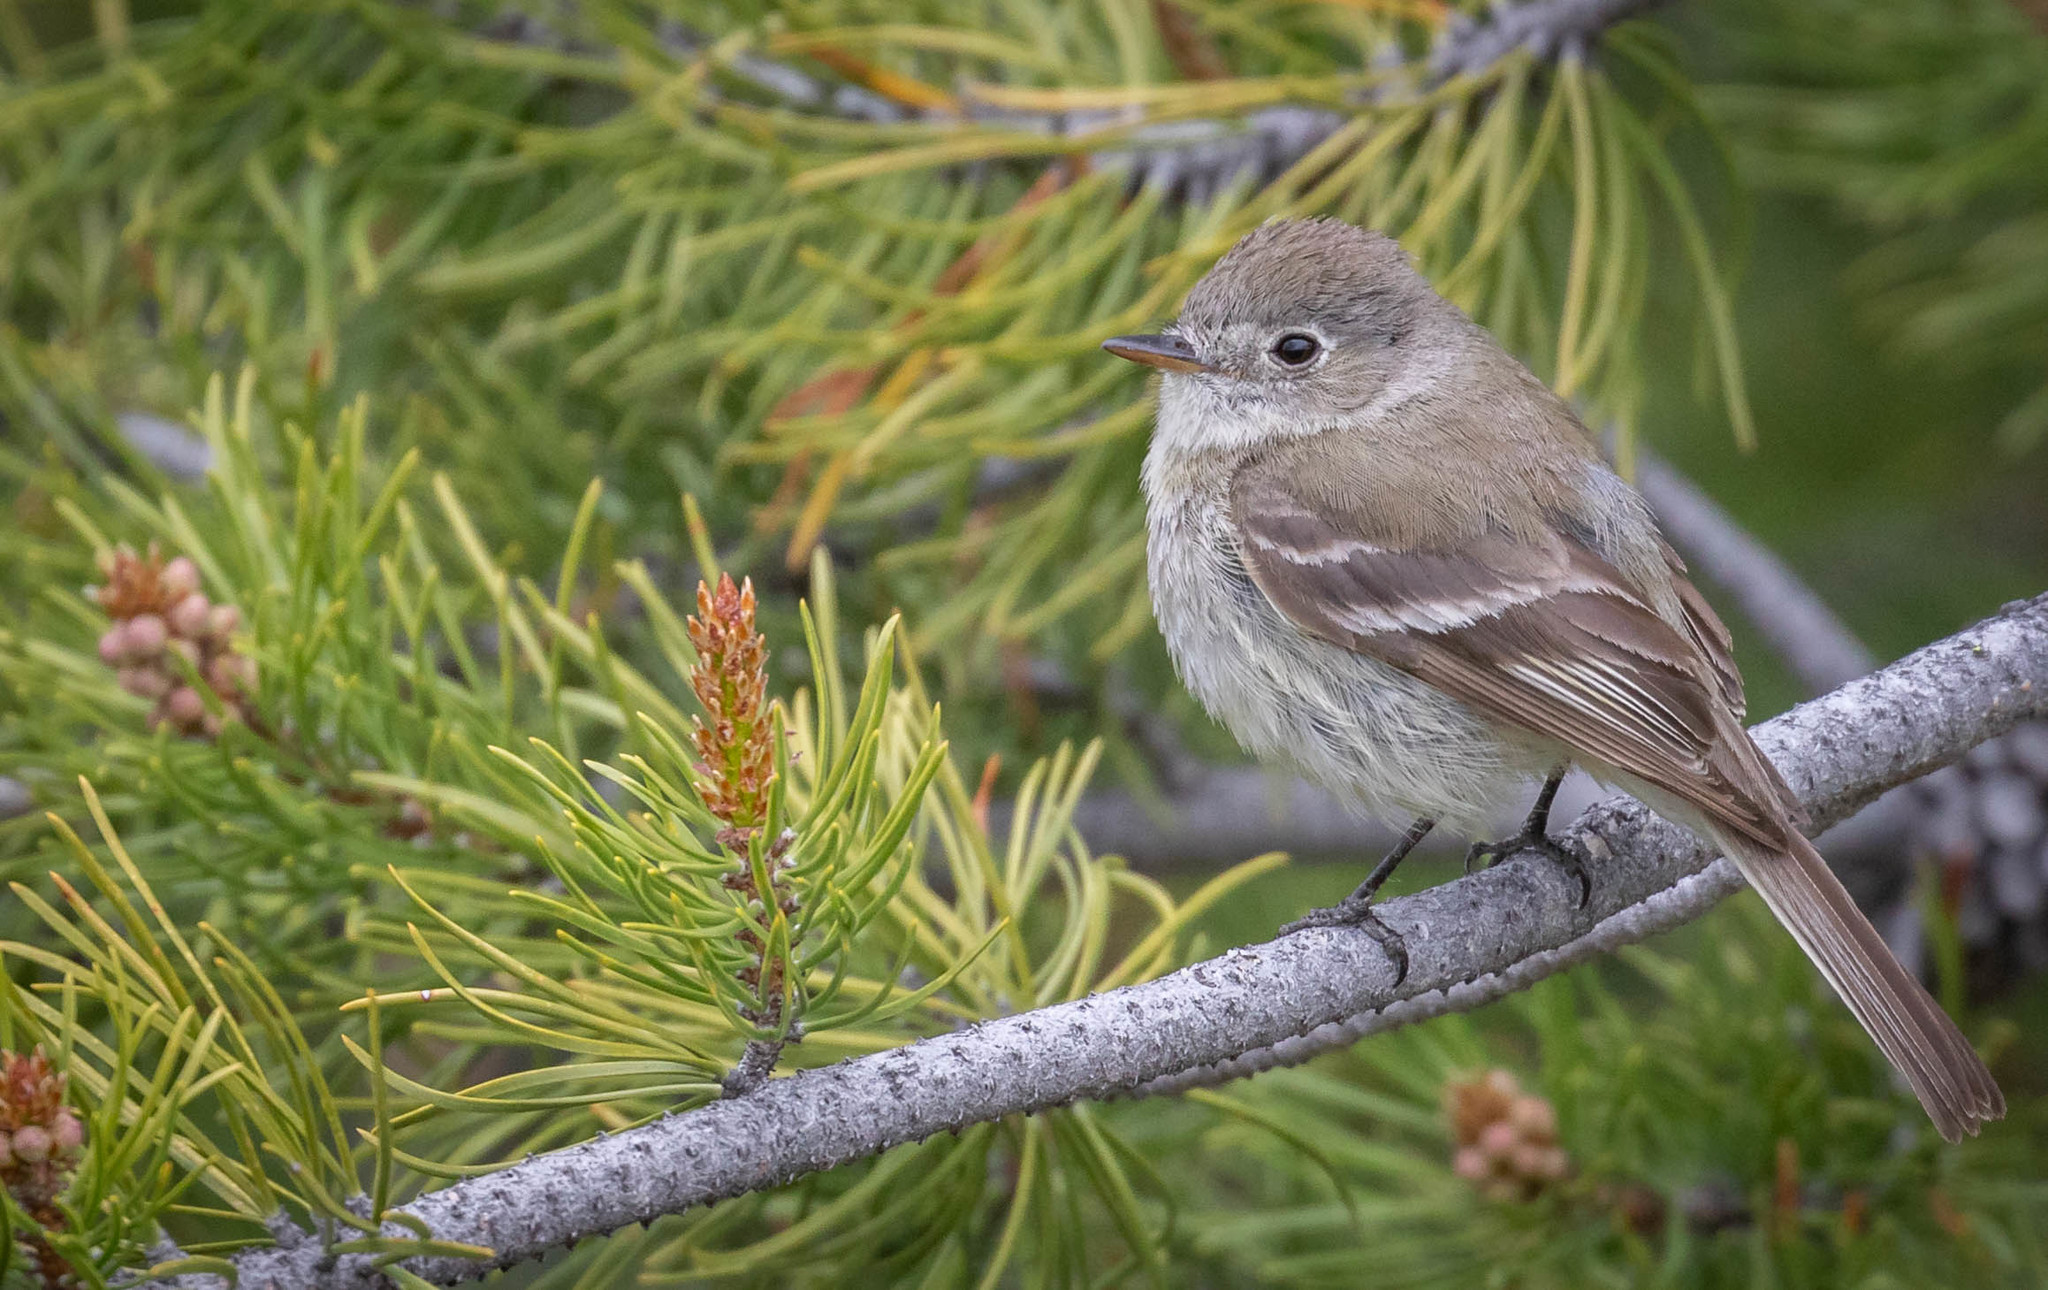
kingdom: Animalia
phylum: Chordata
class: Aves
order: Passeriformes
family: Tyrannidae
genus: Empidonax
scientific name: Empidonax oberholseri
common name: Dusky flycatcher
